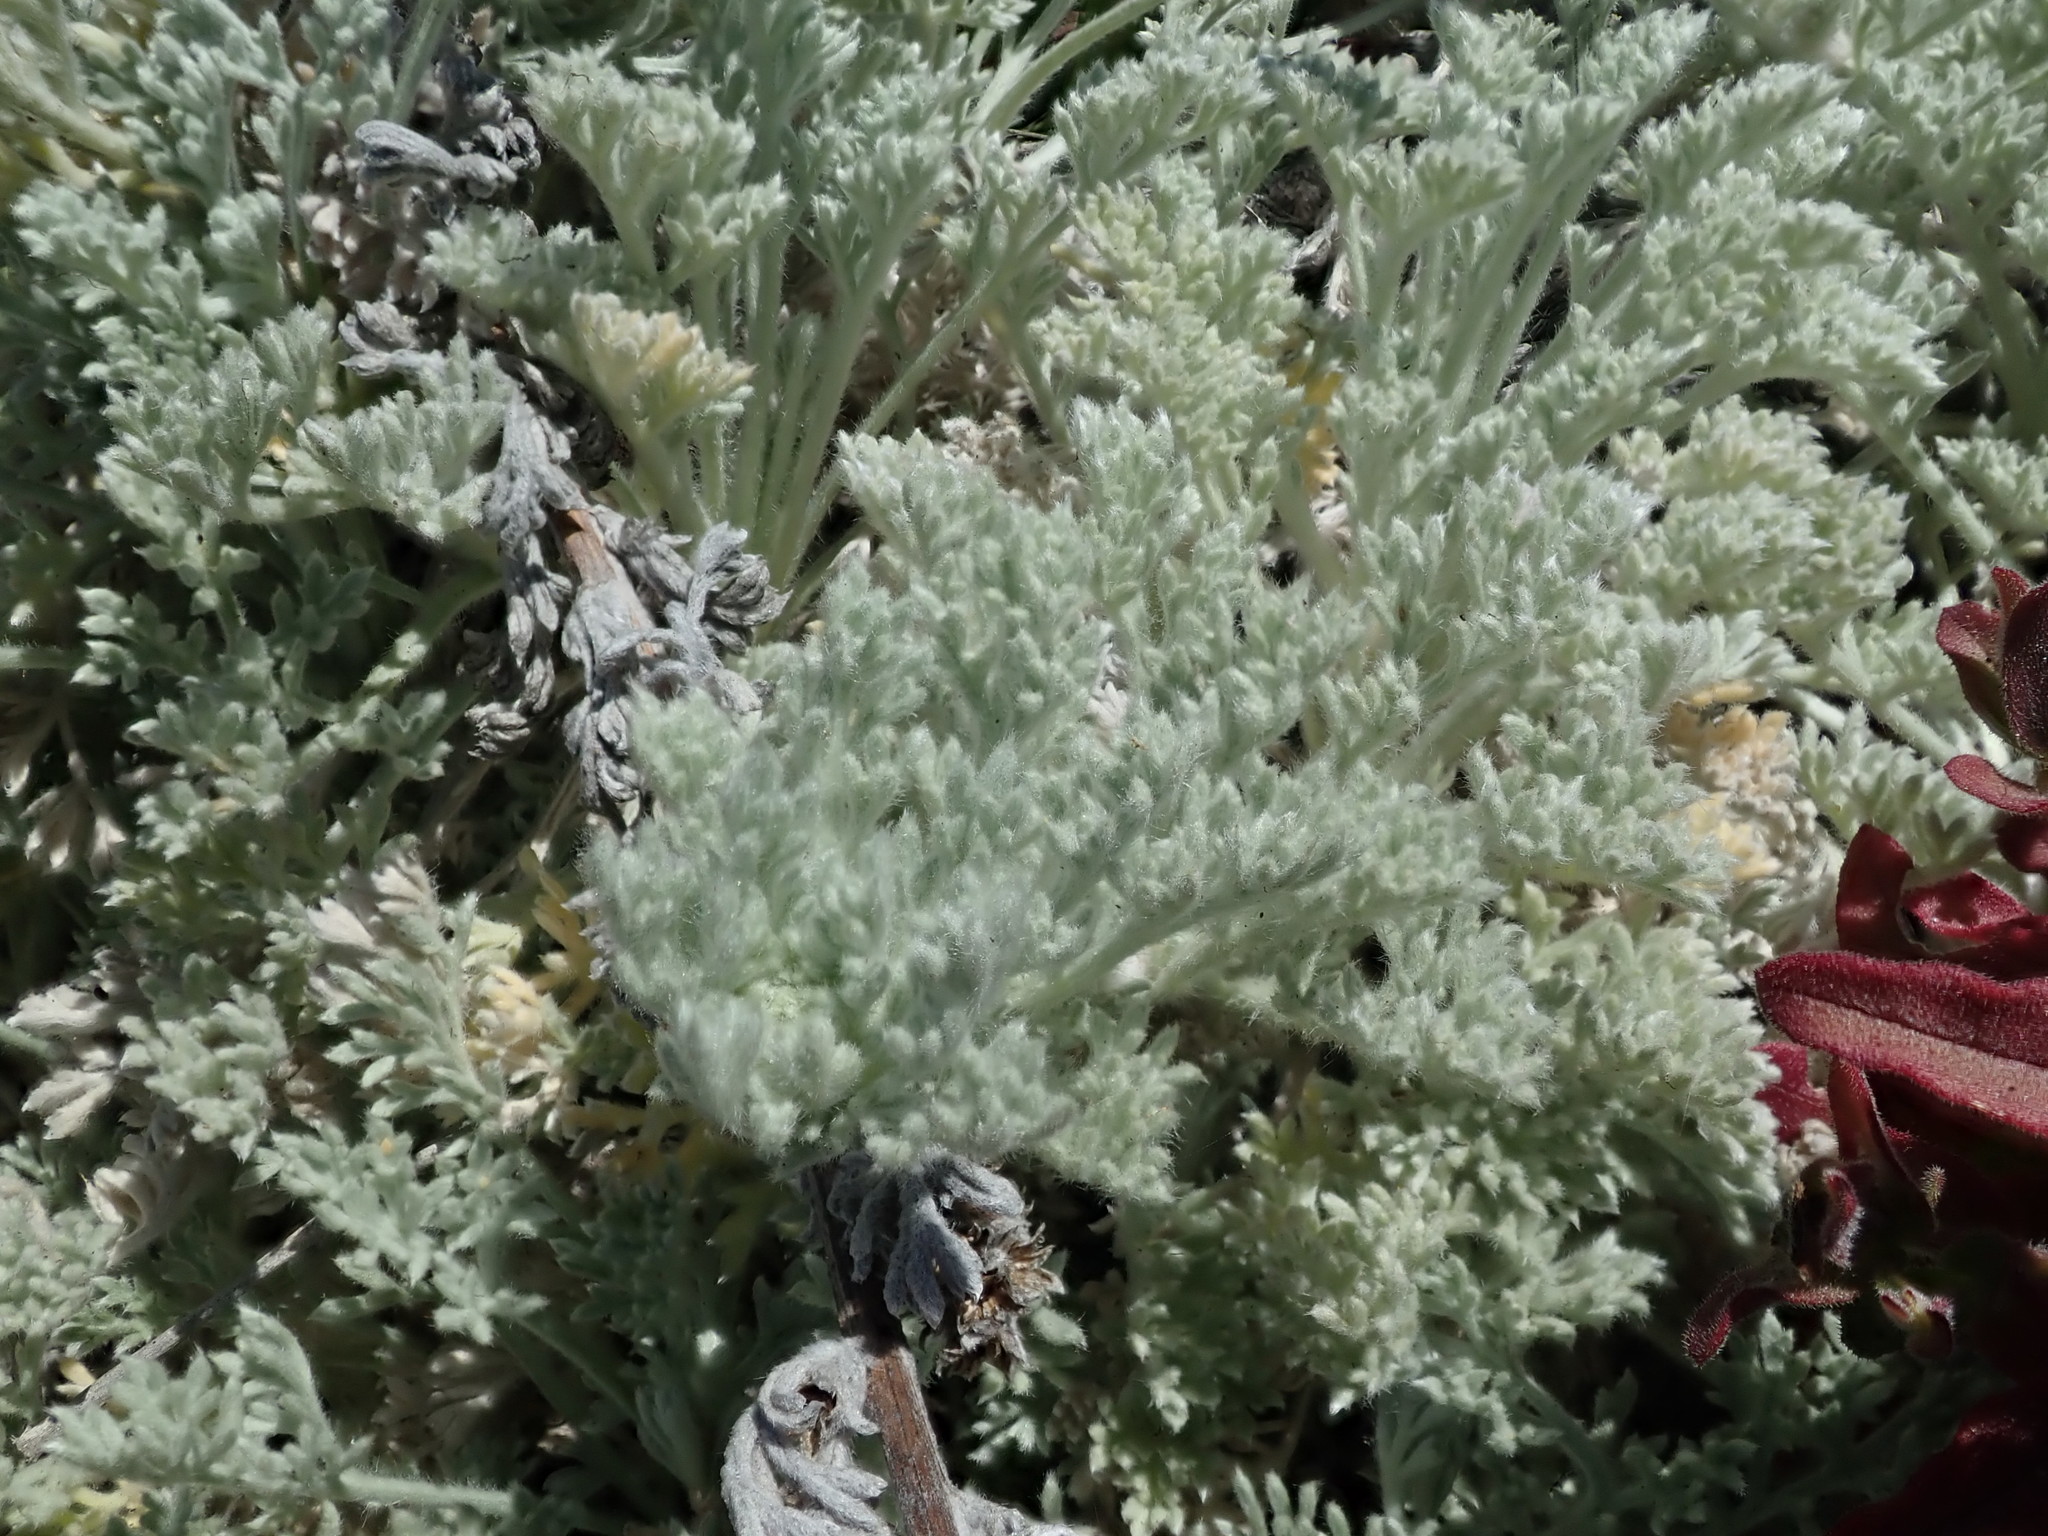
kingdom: Plantae
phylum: Tracheophyta
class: Magnoliopsida
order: Asterales
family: Asteraceae
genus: Artemisia
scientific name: Artemisia pycnocephala
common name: Coastal sagewort
